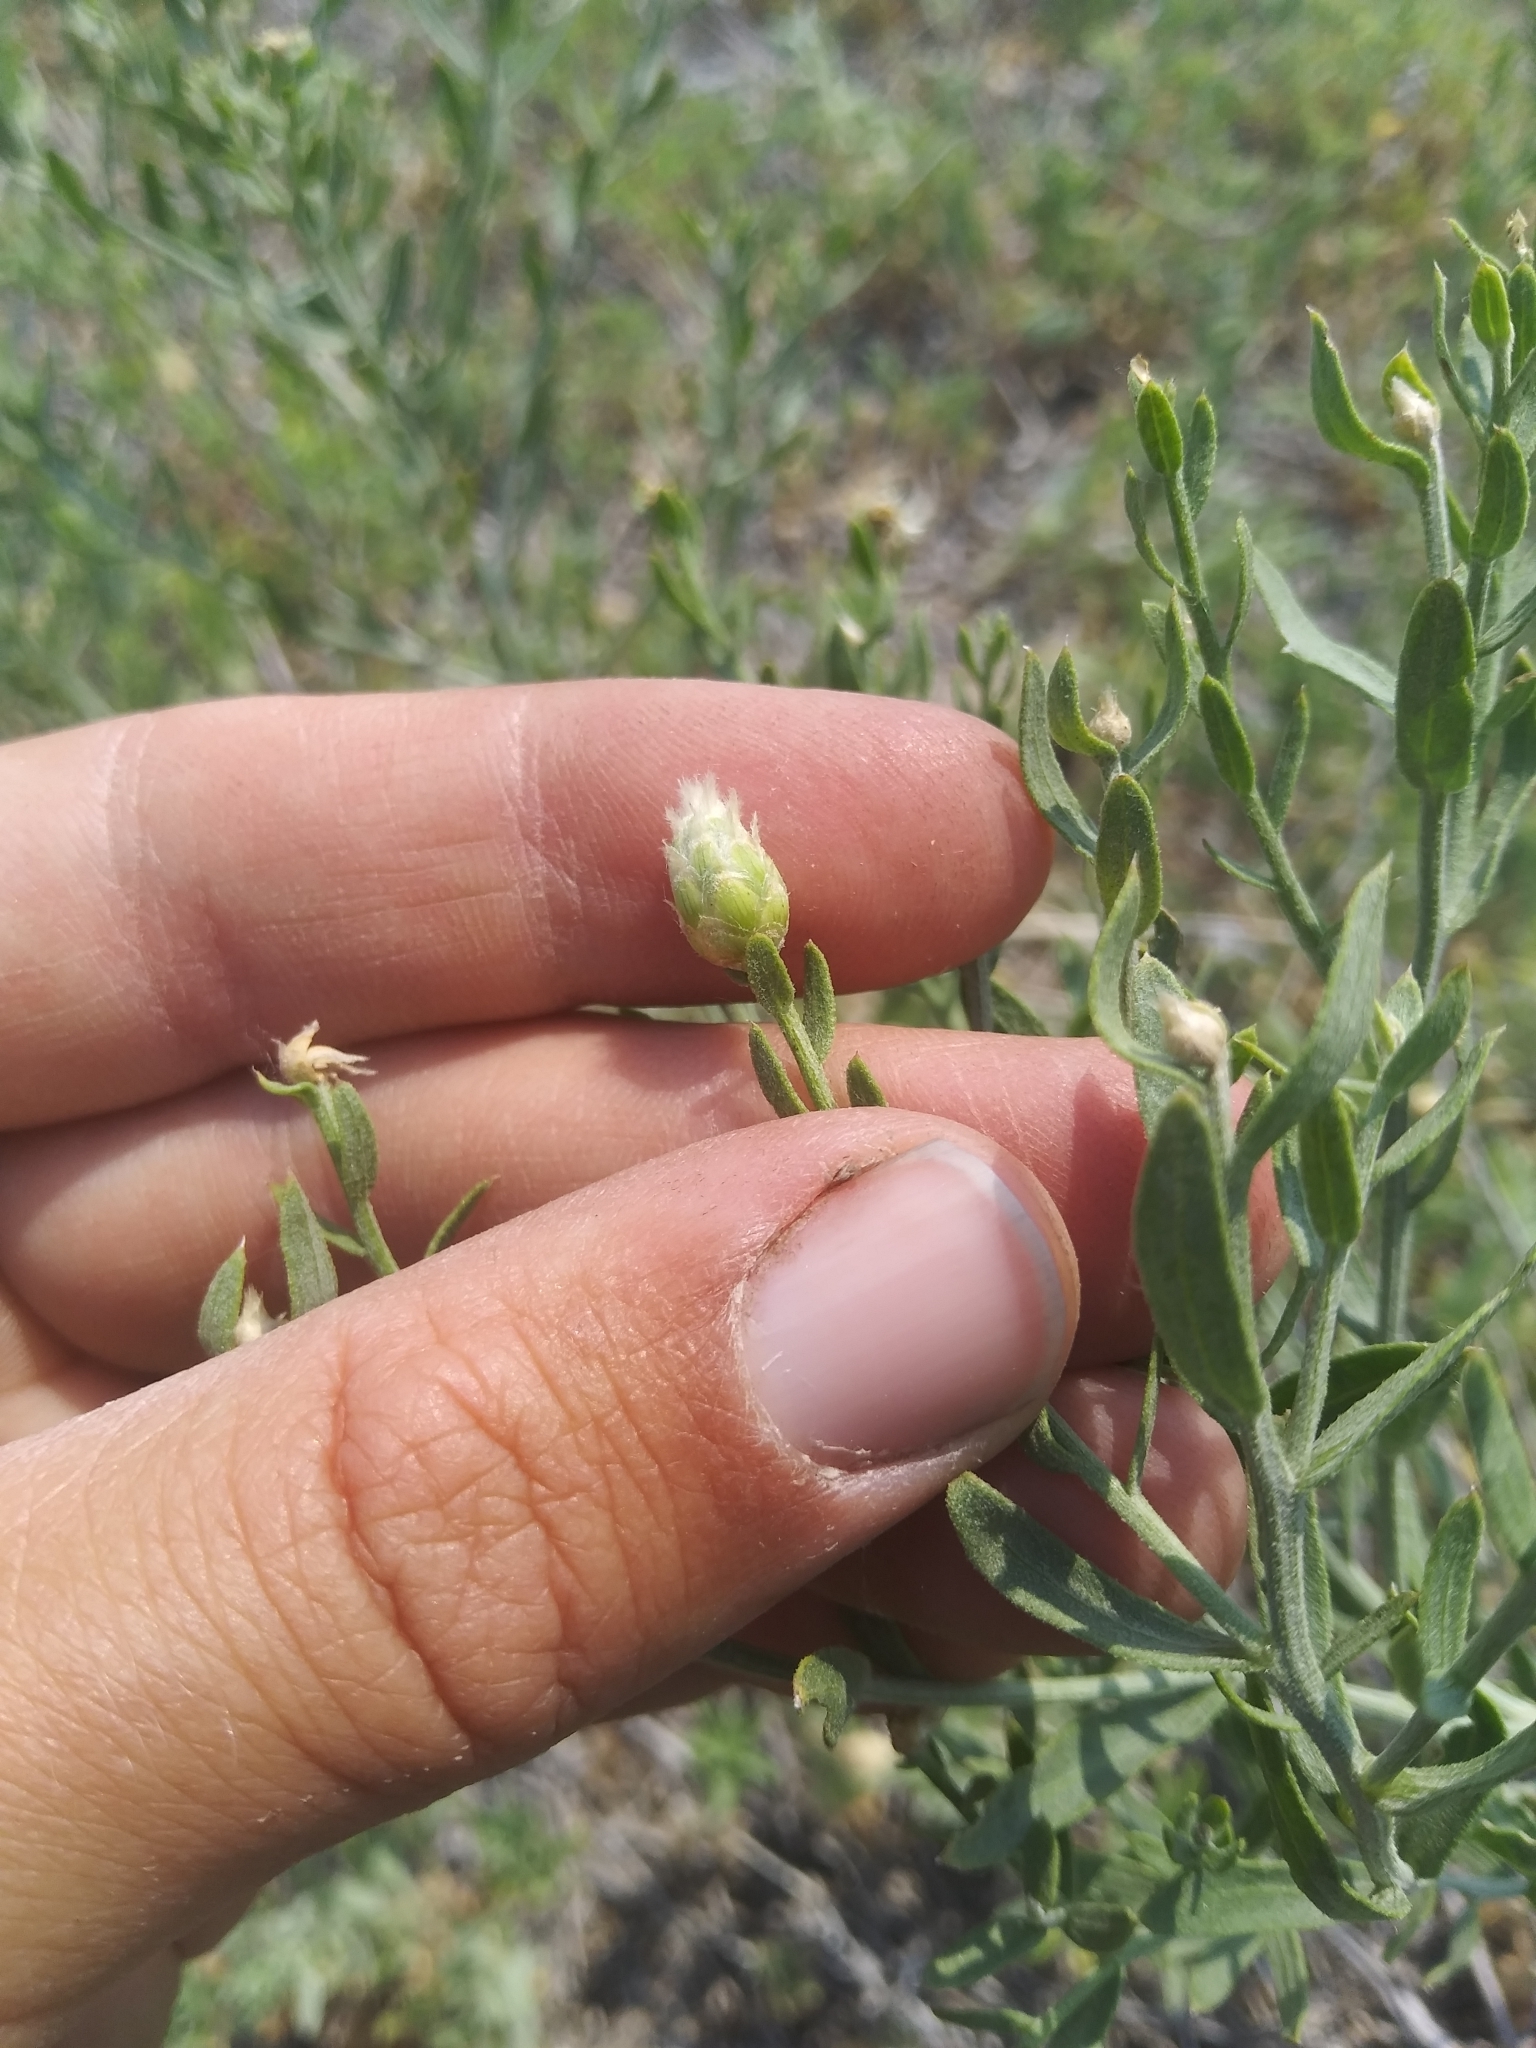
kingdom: Plantae
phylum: Tracheophyta
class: Magnoliopsida
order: Asterales
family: Asteraceae
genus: Leuzea
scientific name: Leuzea repens
